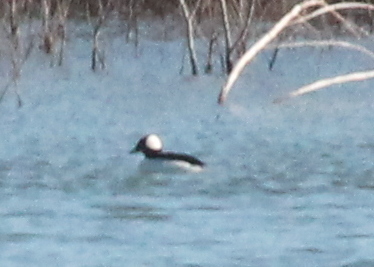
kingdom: Animalia
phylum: Chordata
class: Aves
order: Anseriformes
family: Anatidae
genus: Bucephala
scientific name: Bucephala albeola
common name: Bufflehead
